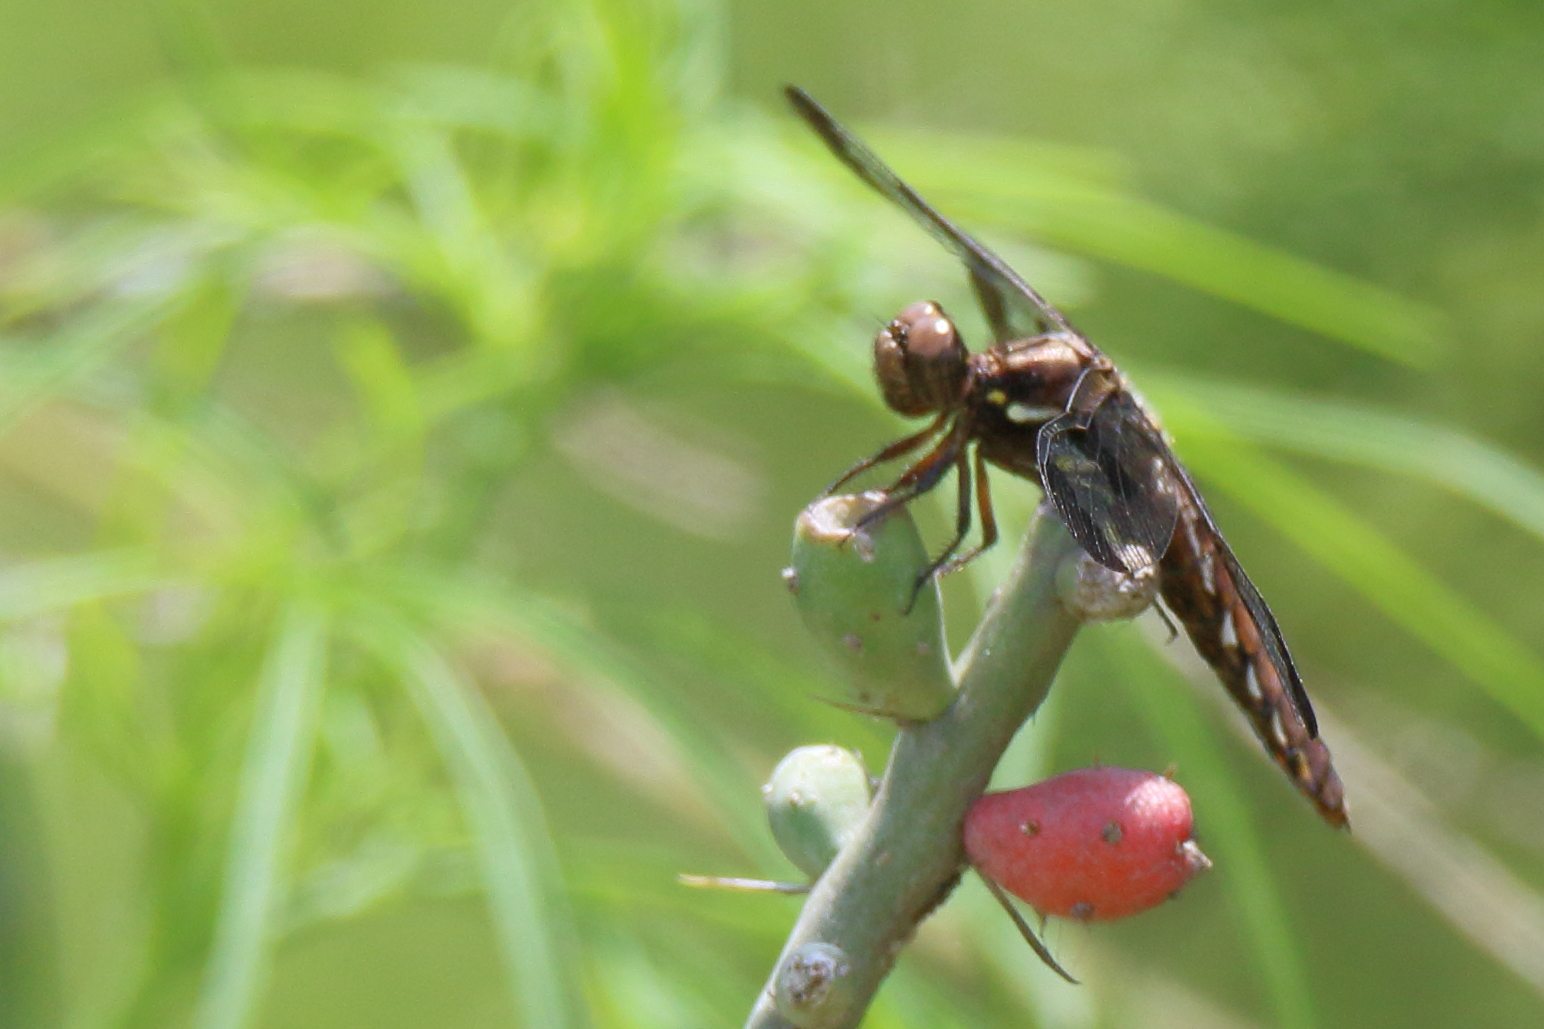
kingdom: Animalia
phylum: Arthropoda
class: Insecta
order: Odonata
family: Libellulidae
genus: Plathemis
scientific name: Plathemis lydia
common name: Common whitetail
